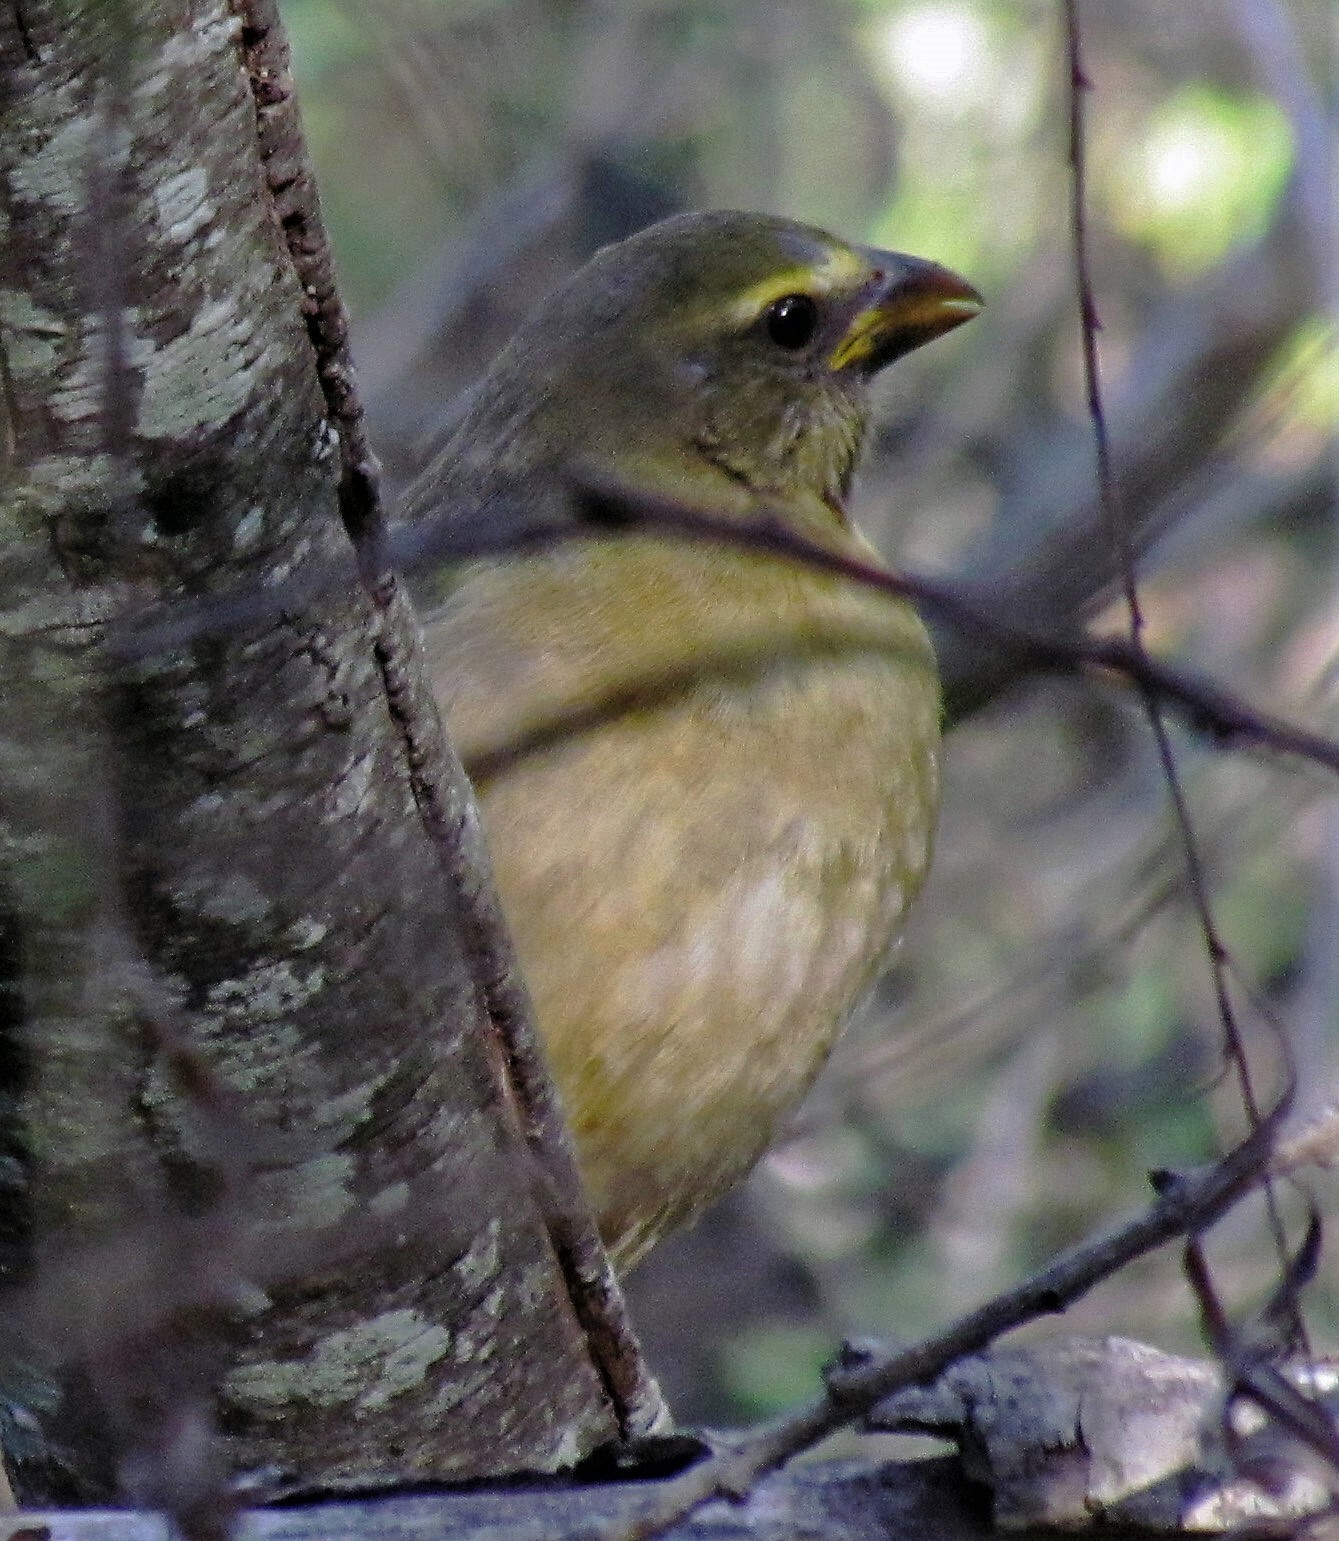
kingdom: Animalia
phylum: Chordata
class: Aves
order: Passeriformes
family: Thraupidae
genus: Saltator
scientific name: Saltator coerulescens
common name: Grayish saltator
